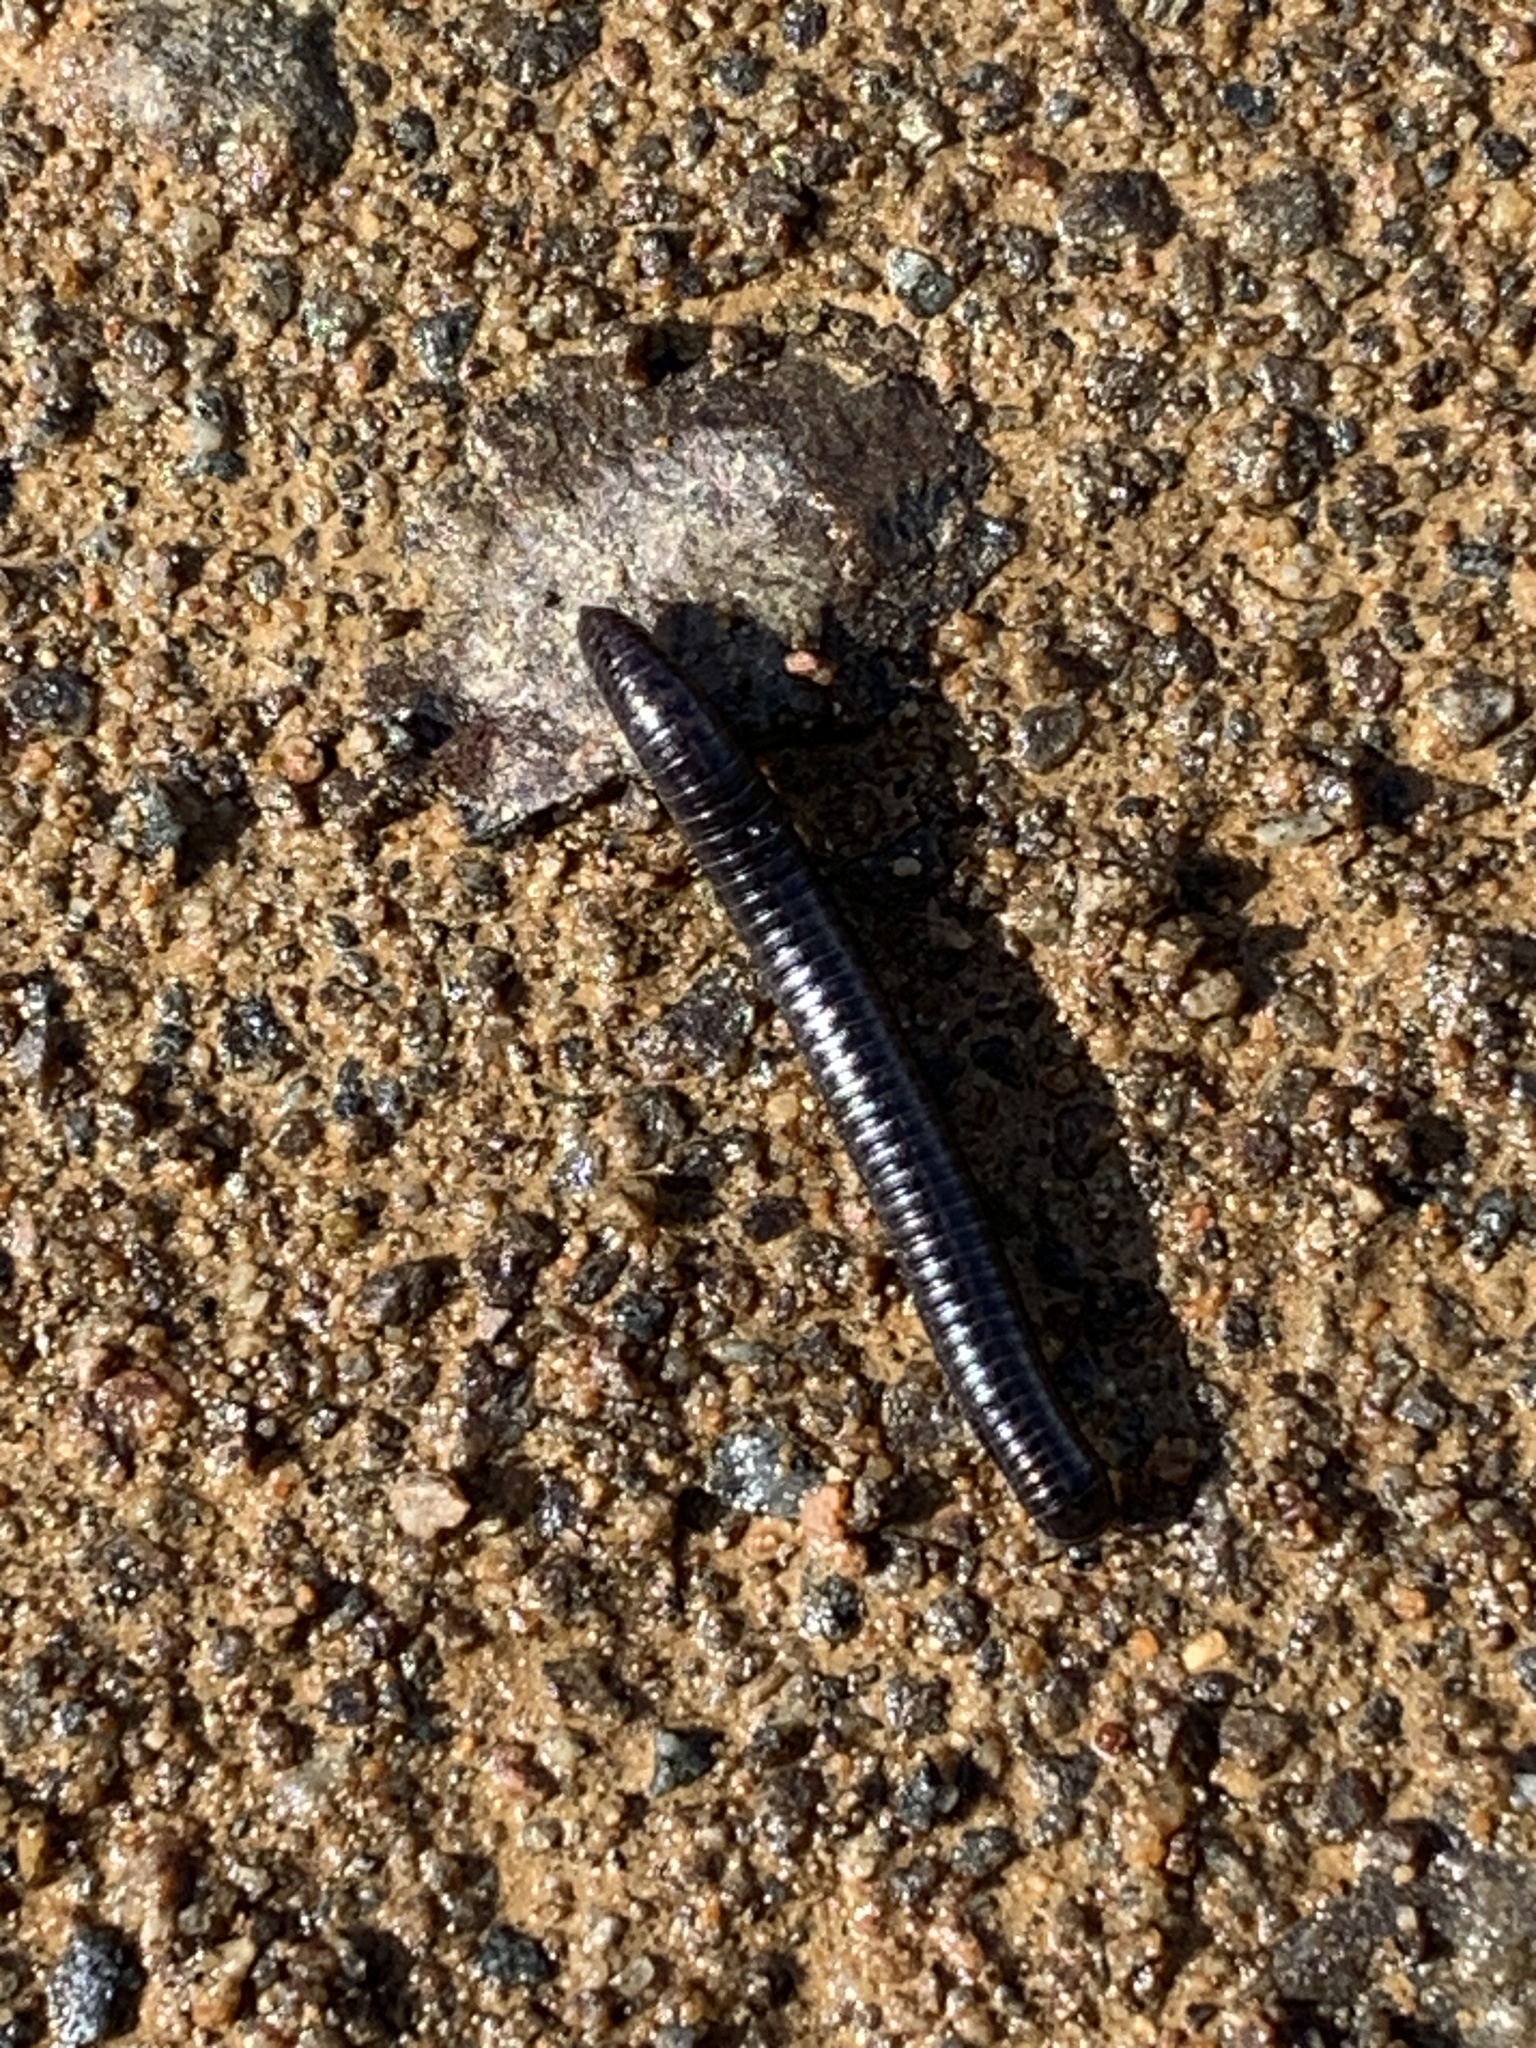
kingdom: Animalia
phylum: Arthropoda
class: Diplopoda
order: Julida
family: Julidae
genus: Ommatoiulus
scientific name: Ommatoiulus moreleti
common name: Portuguese millipede
